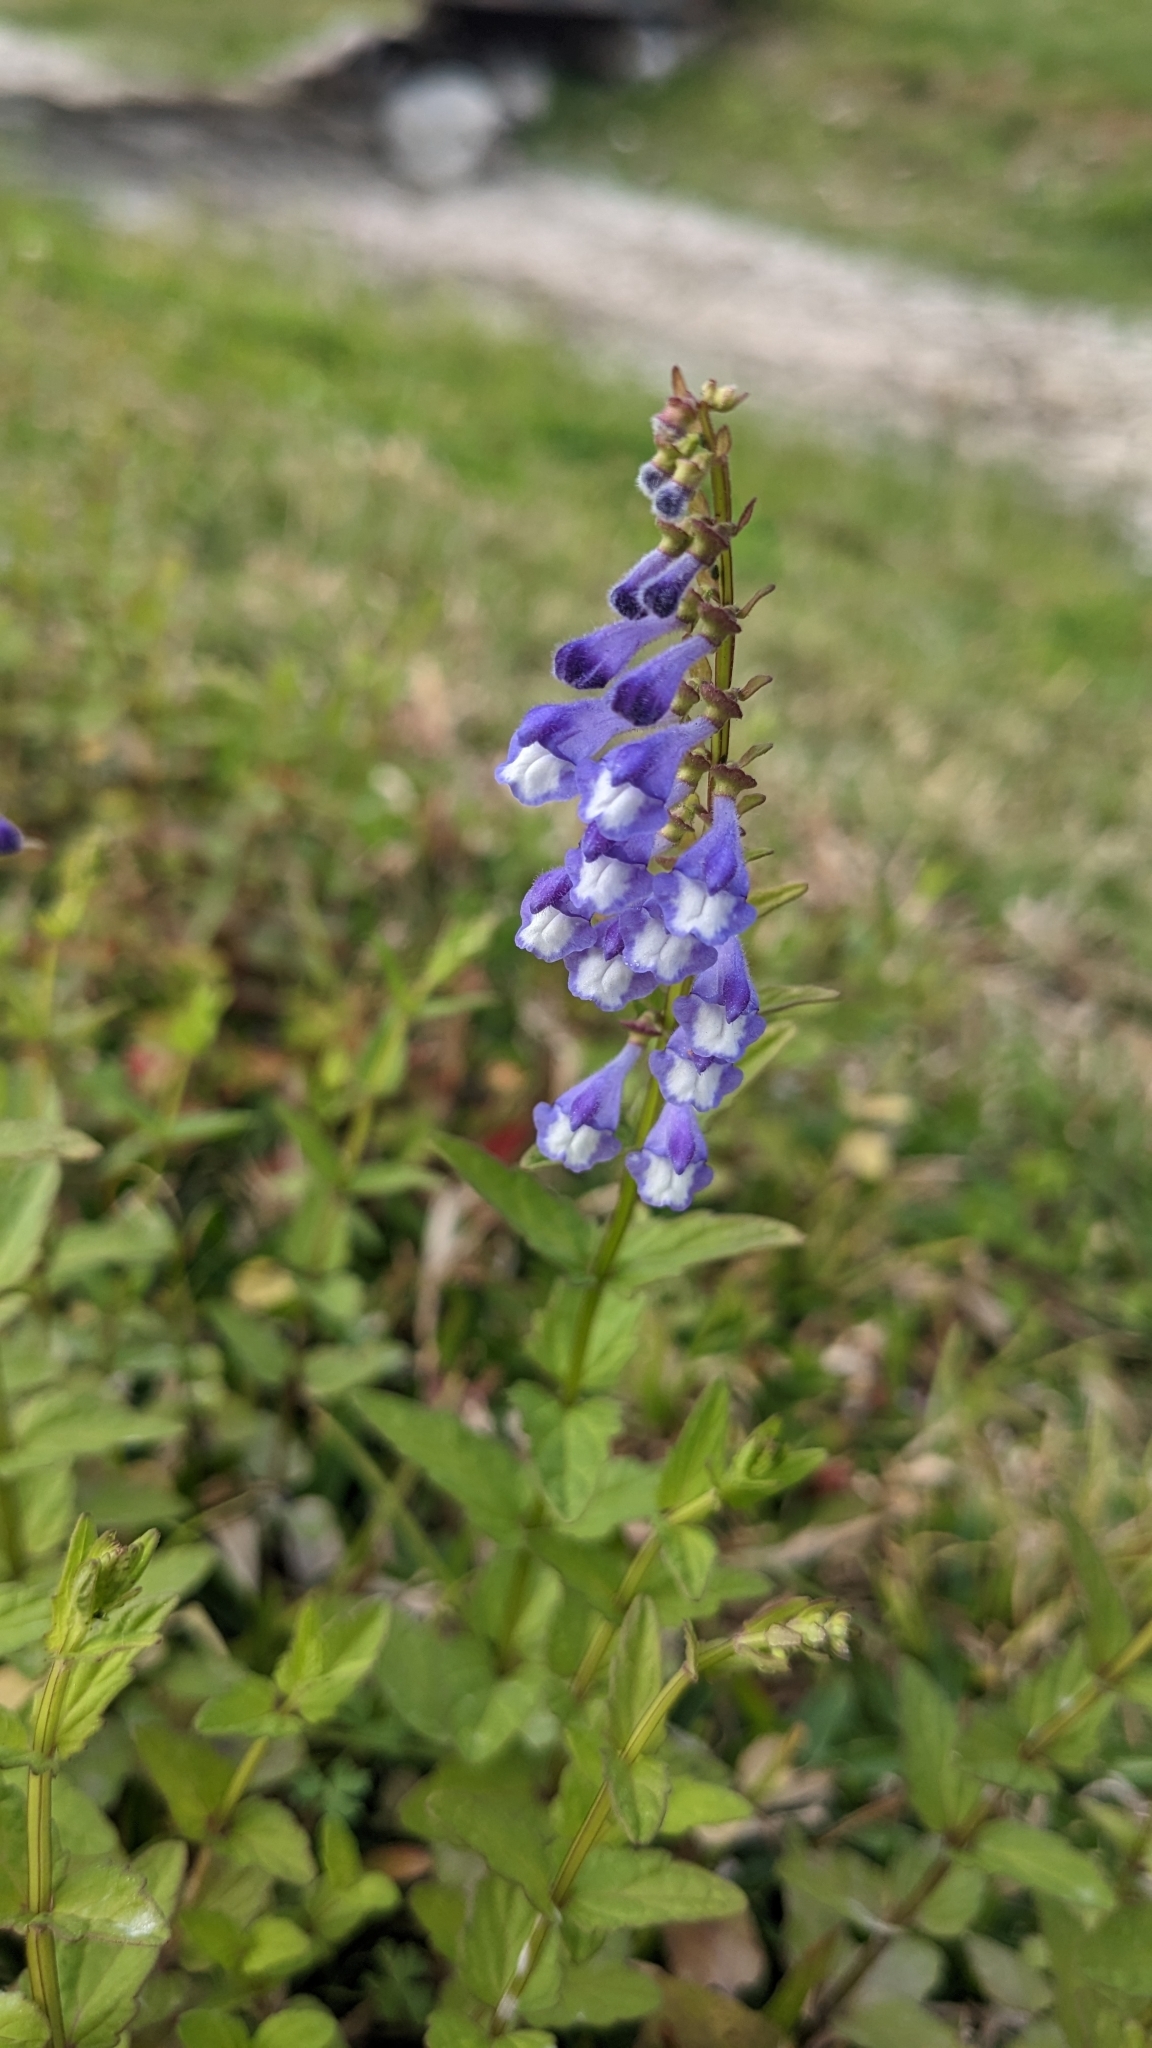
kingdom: Plantae
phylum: Tracheophyta
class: Magnoliopsida
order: Lamiales
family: Lamiaceae
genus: Scutellaria
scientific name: Scutellaria barbata
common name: Barbed skullcap
